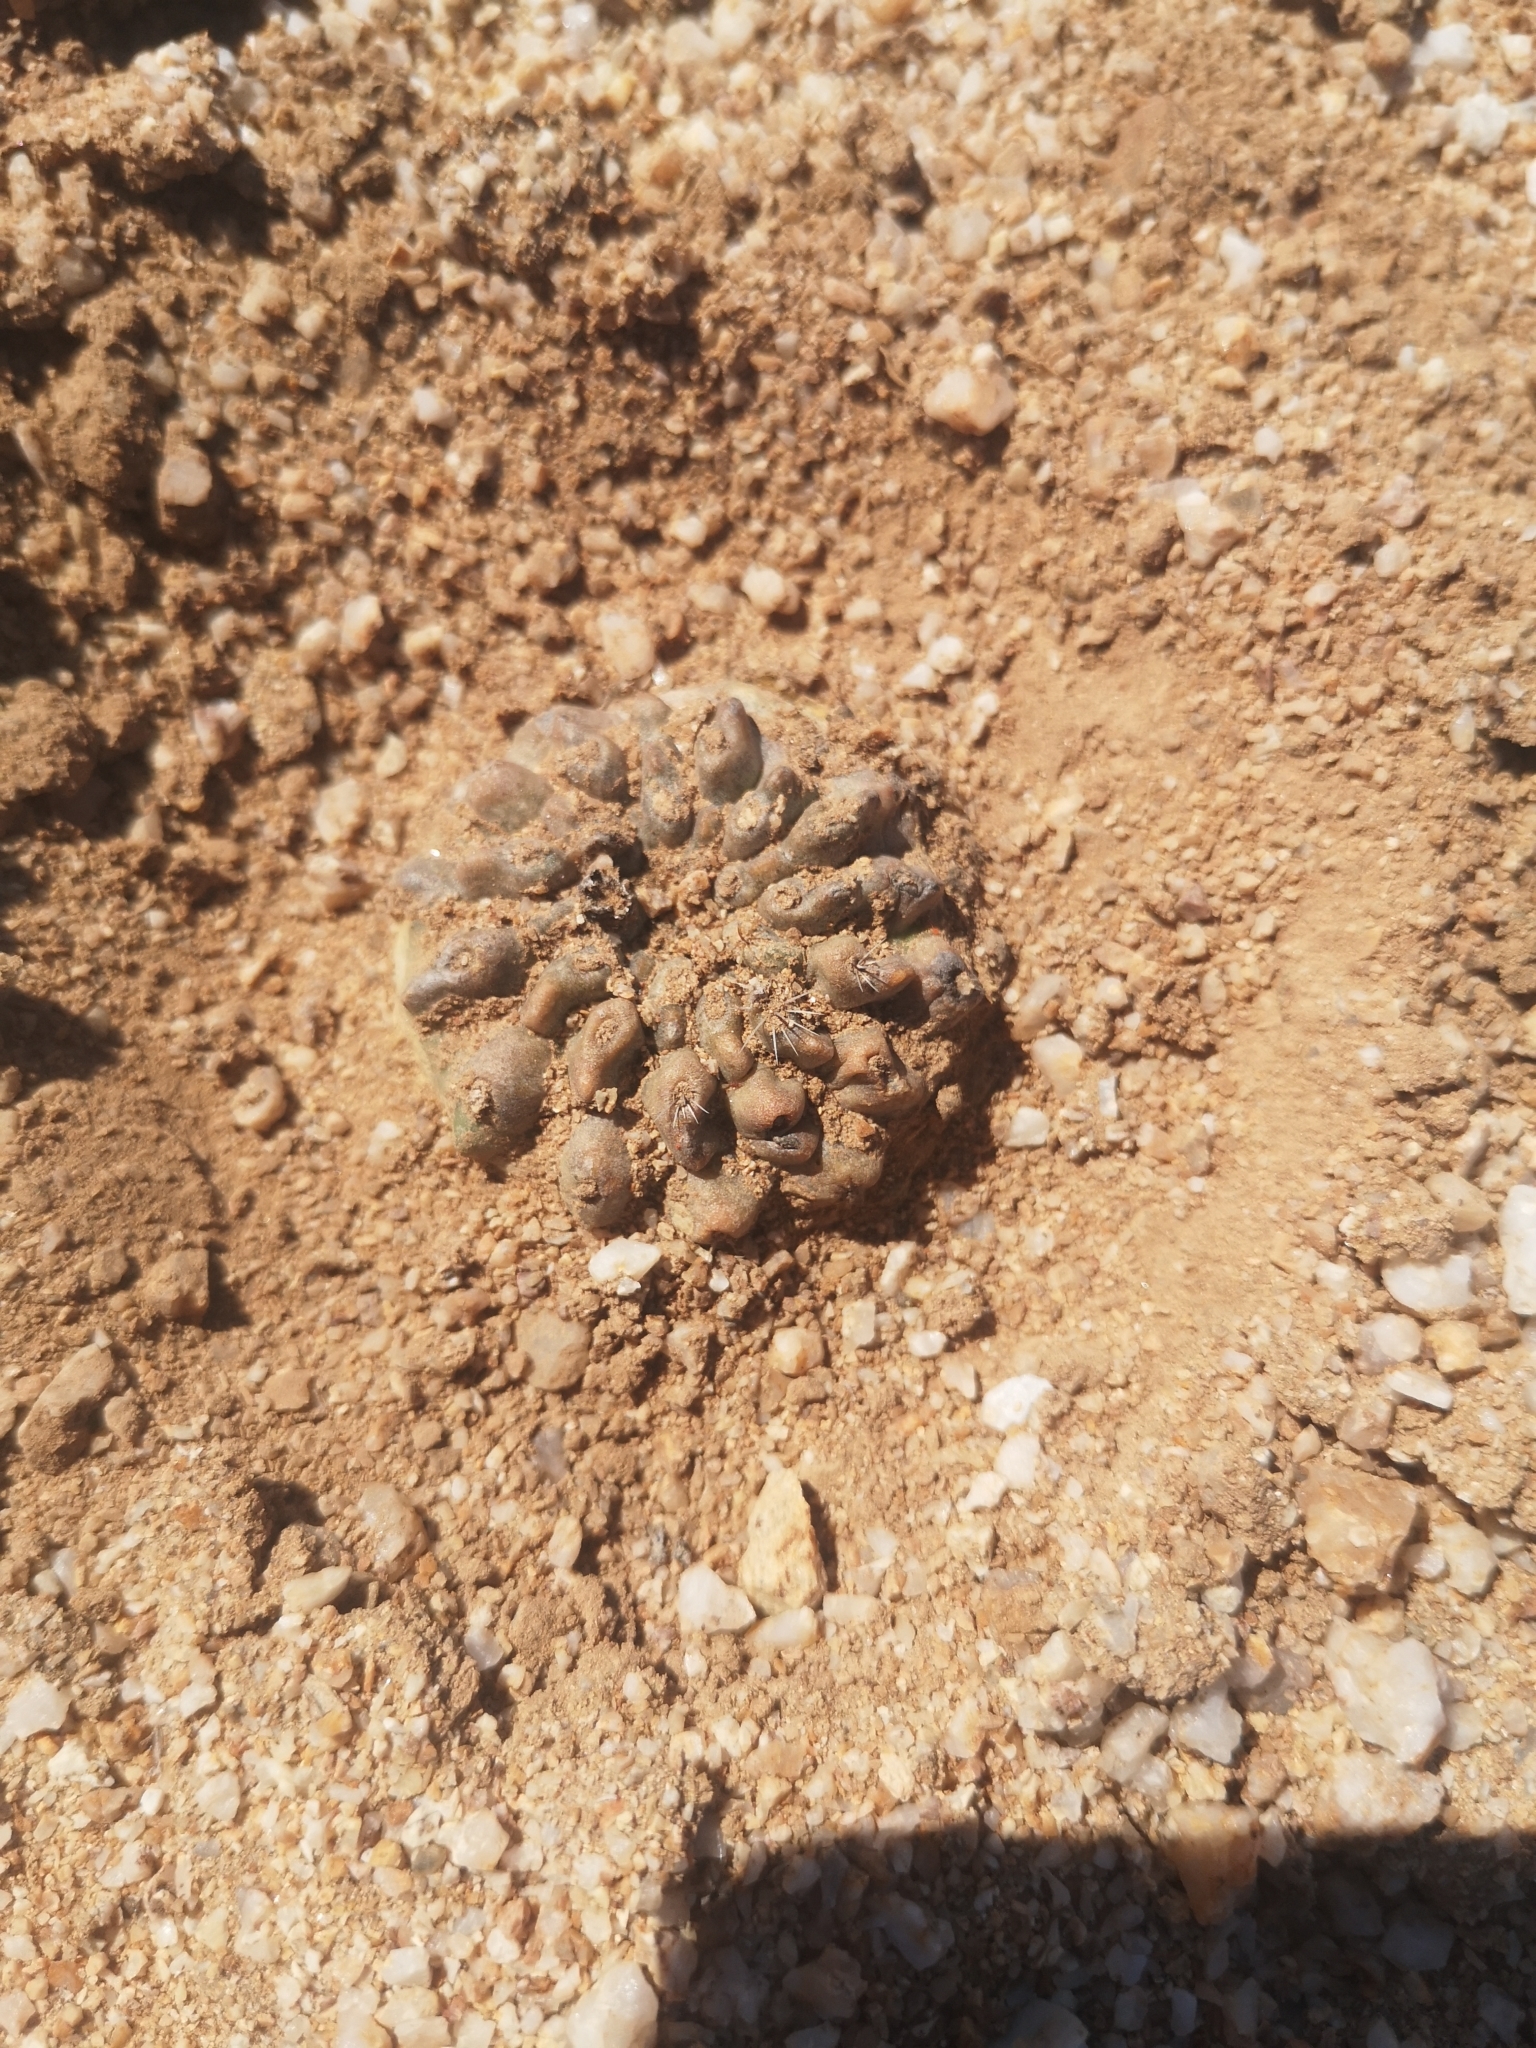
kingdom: Plantae
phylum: Tracheophyta
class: Magnoliopsida
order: Caryophyllales
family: Cactaceae
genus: Copiapoa
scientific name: Copiapoa humilis
